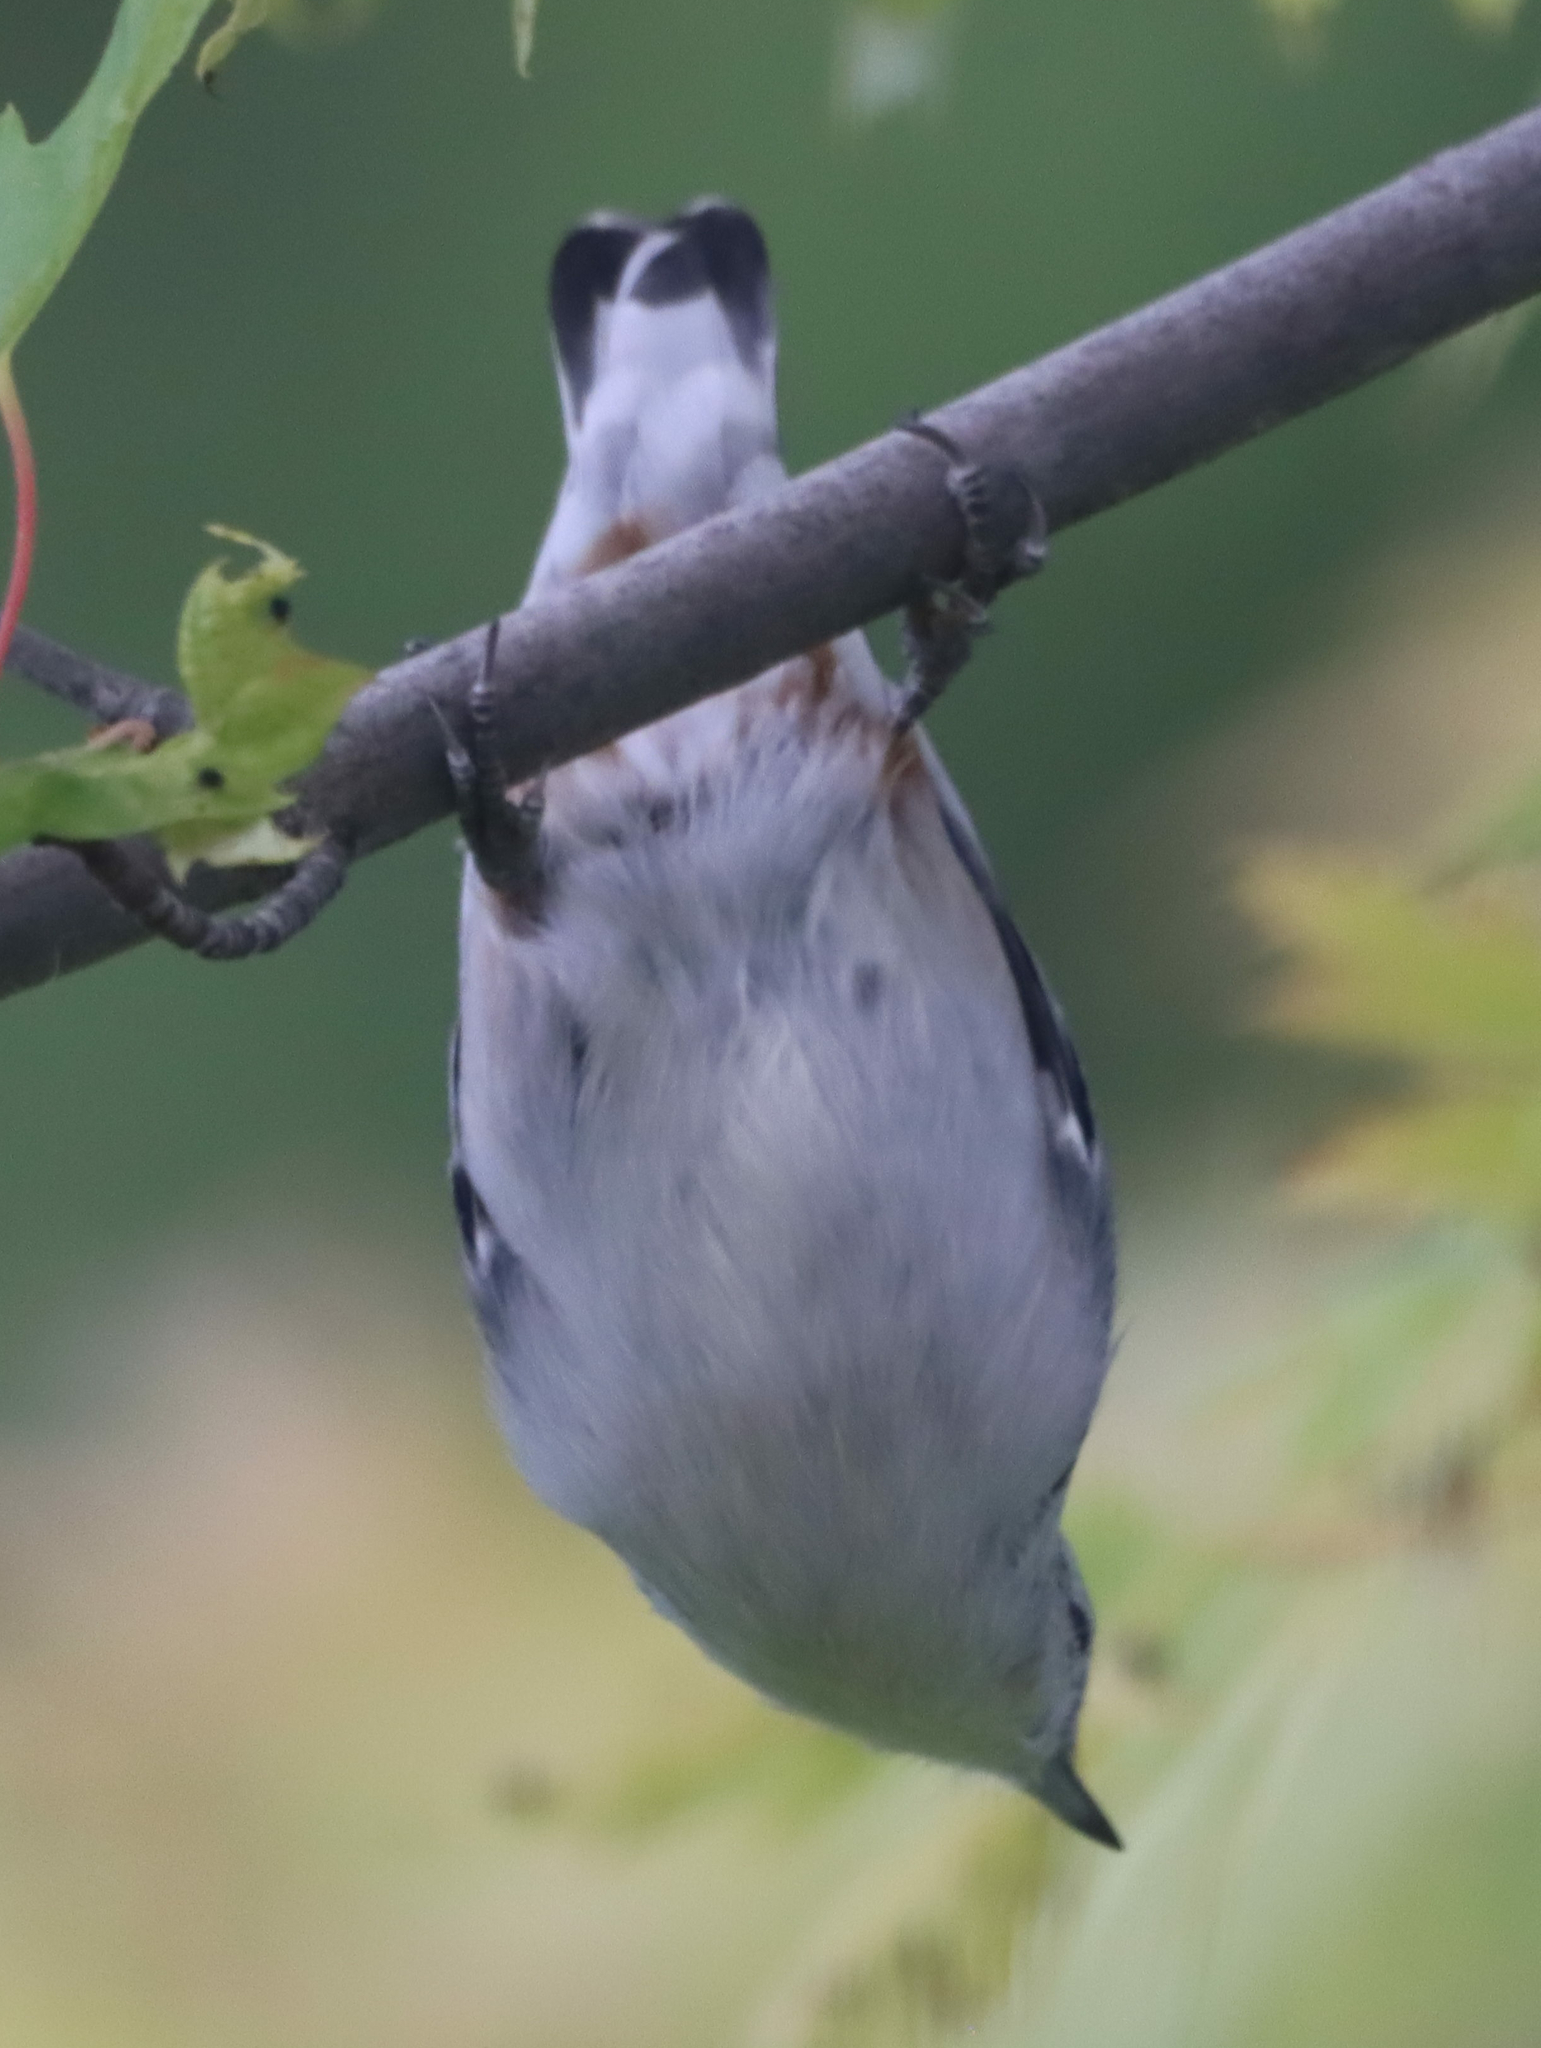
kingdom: Animalia
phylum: Chordata
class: Aves
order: Passeriformes
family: Sittidae
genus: Sitta
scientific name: Sitta carolinensis
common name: White-breasted nuthatch
